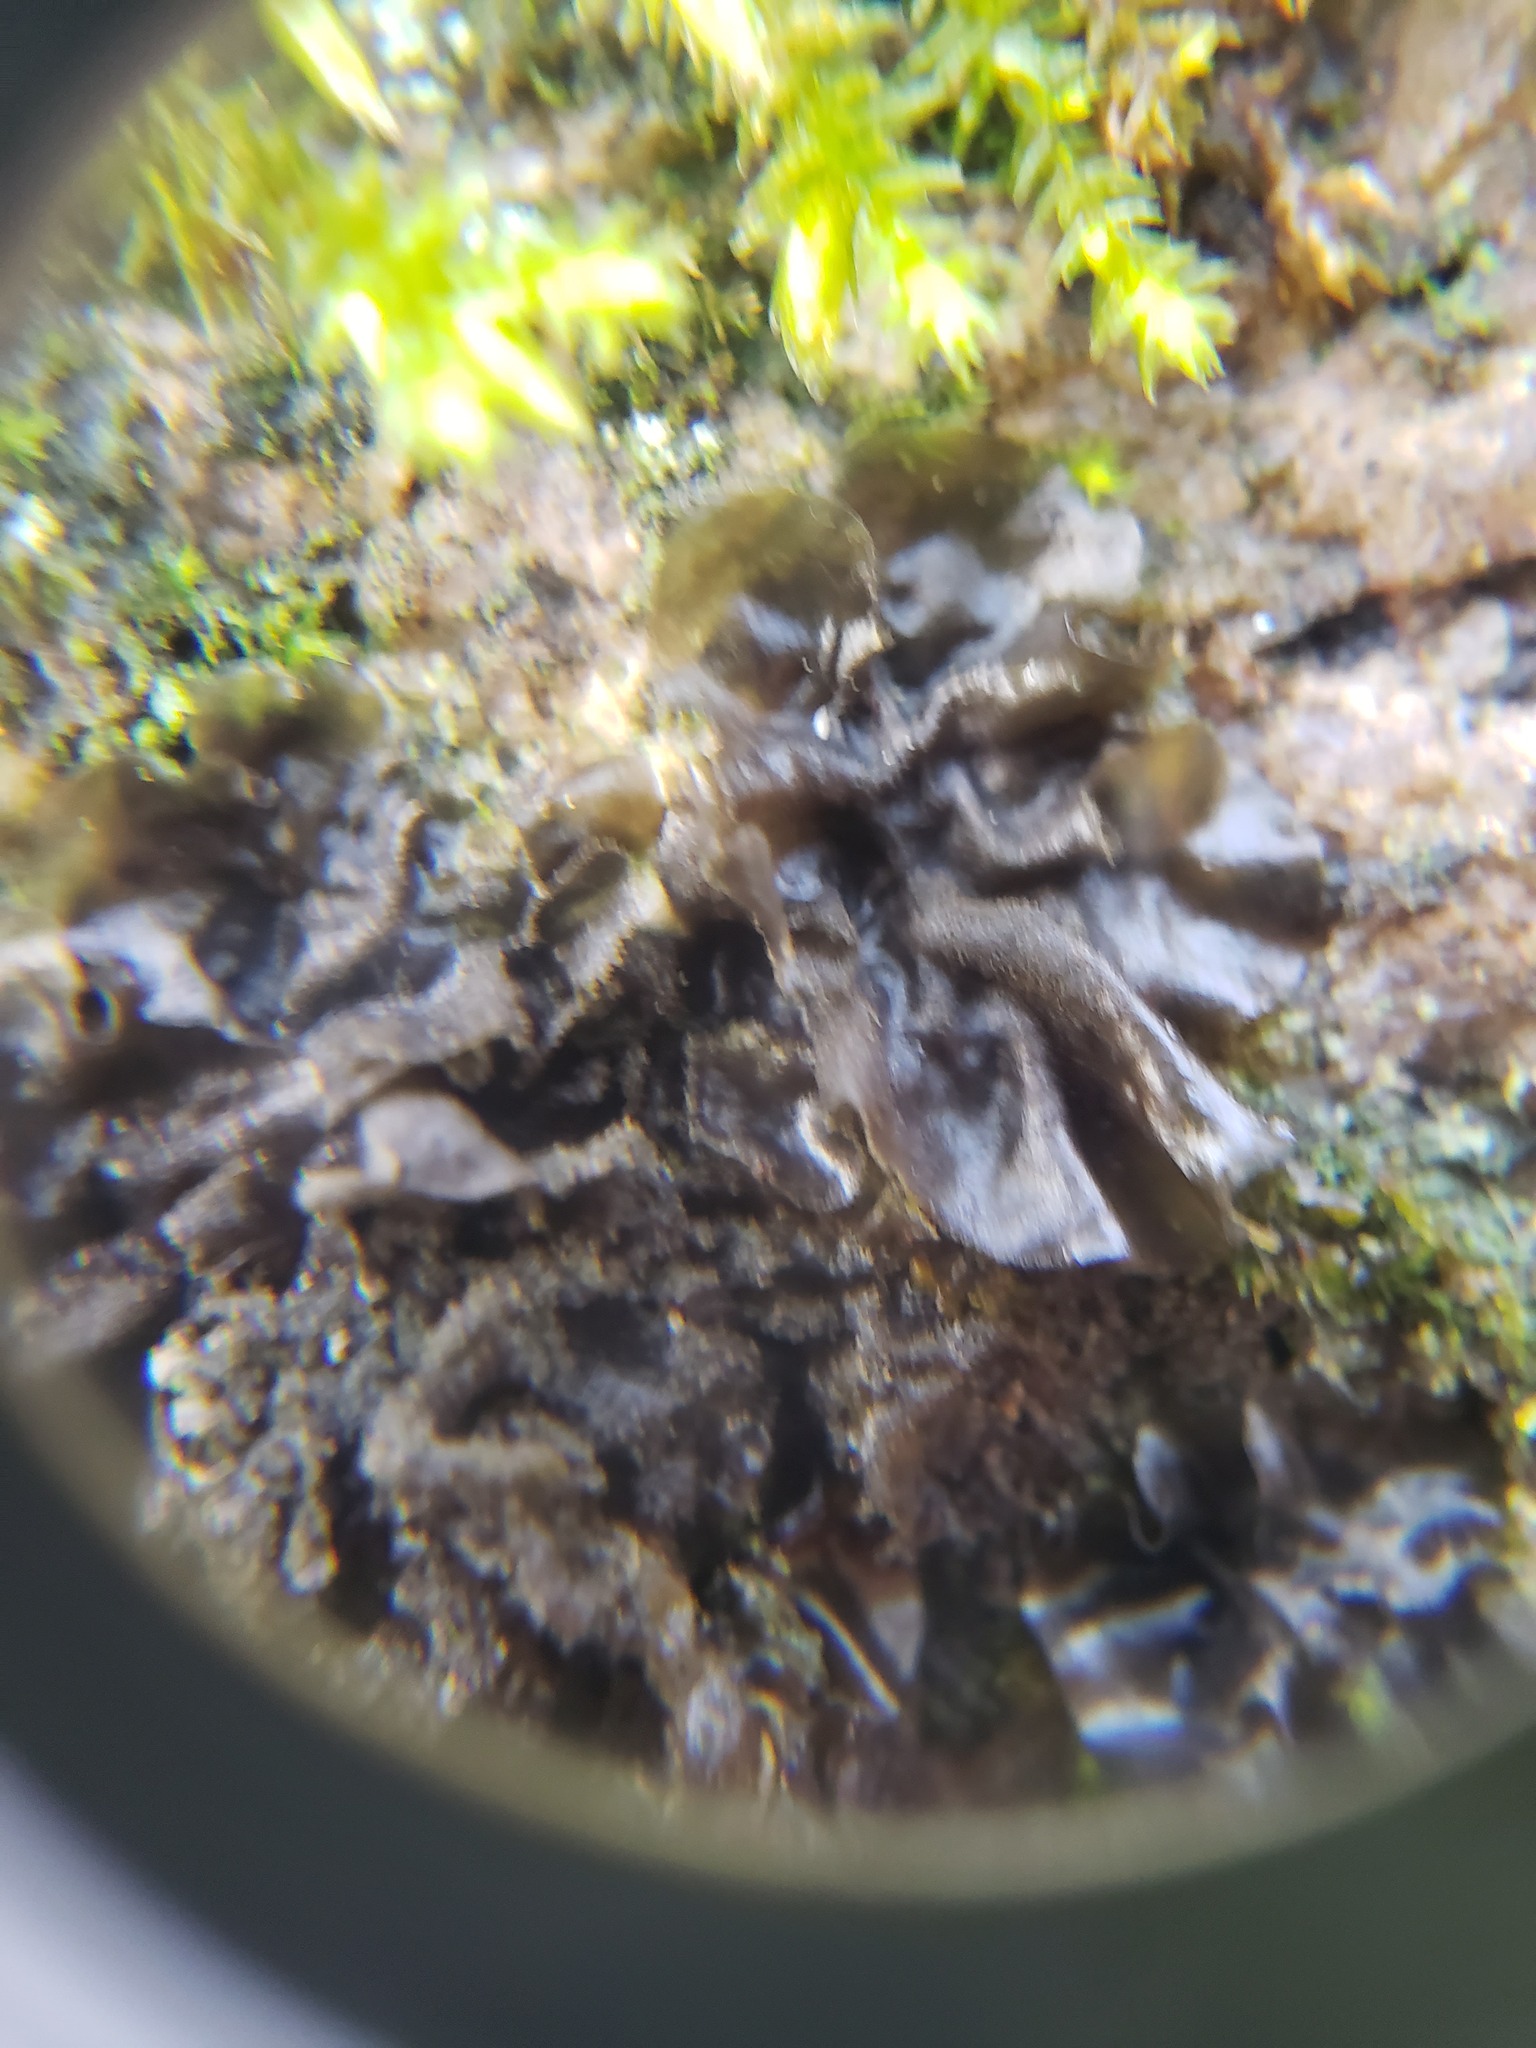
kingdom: Fungi
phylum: Ascomycota
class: Lecanoromycetes
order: Peltigerales
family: Collemataceae
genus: Leptogium
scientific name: Leptogium cyanescens
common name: Blue jellyskin
